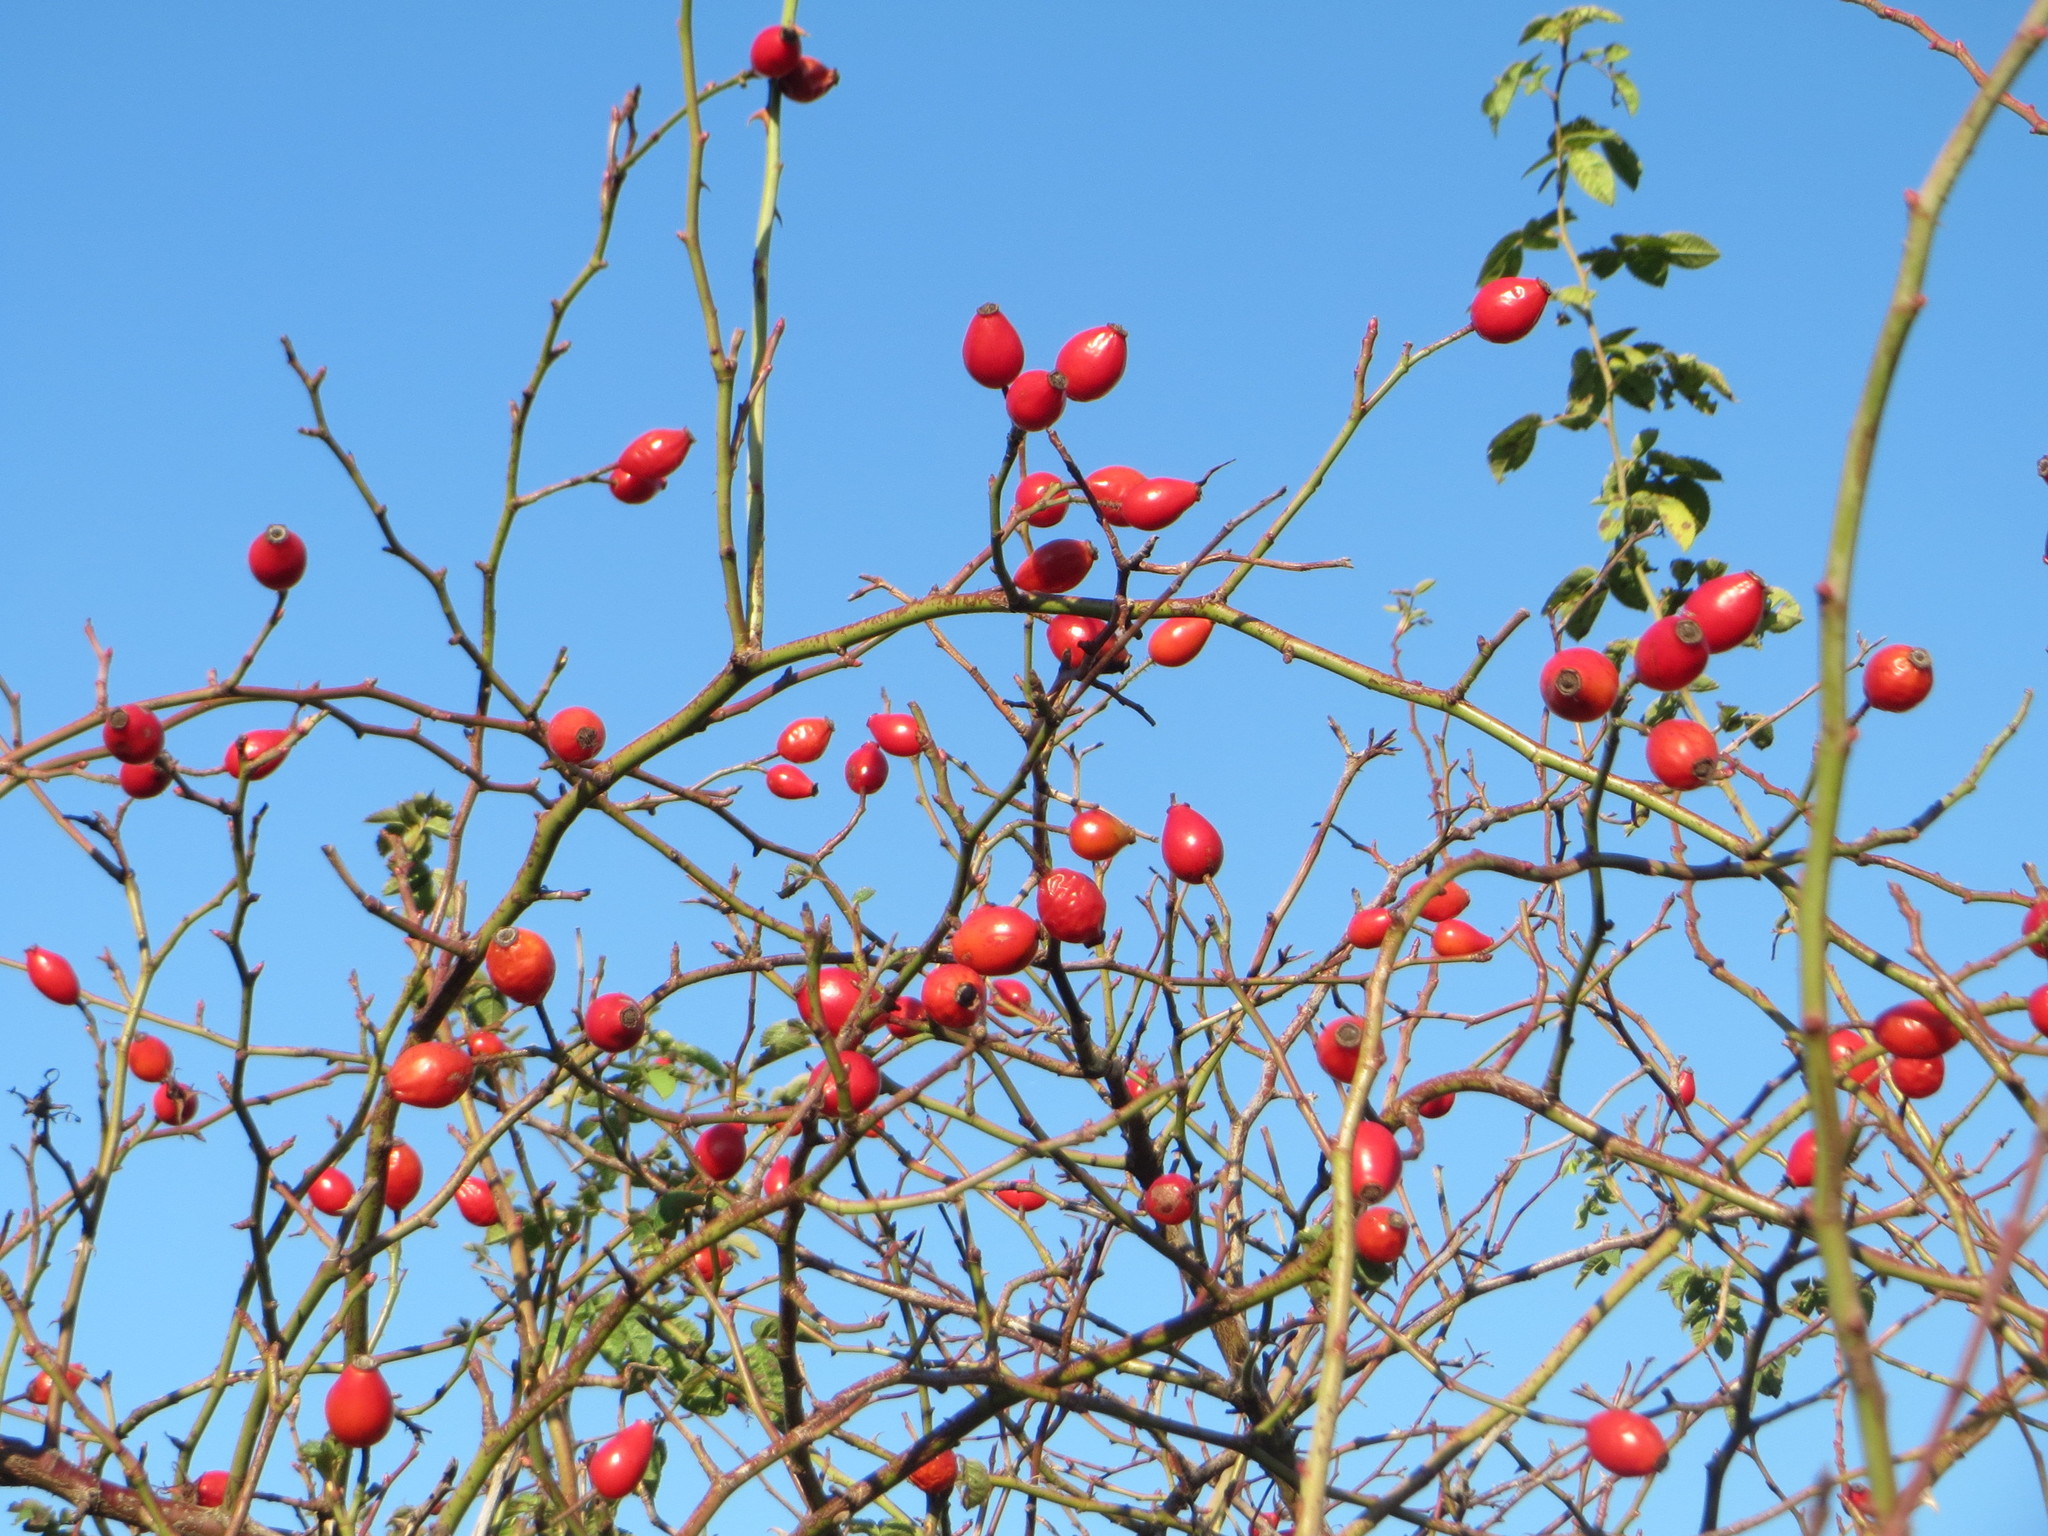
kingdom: Plantae
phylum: Tracheophyta
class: Magnoliopsida
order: Rosales
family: Rosaceae
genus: Rosa
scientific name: Rosa canina
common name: Dog rose
